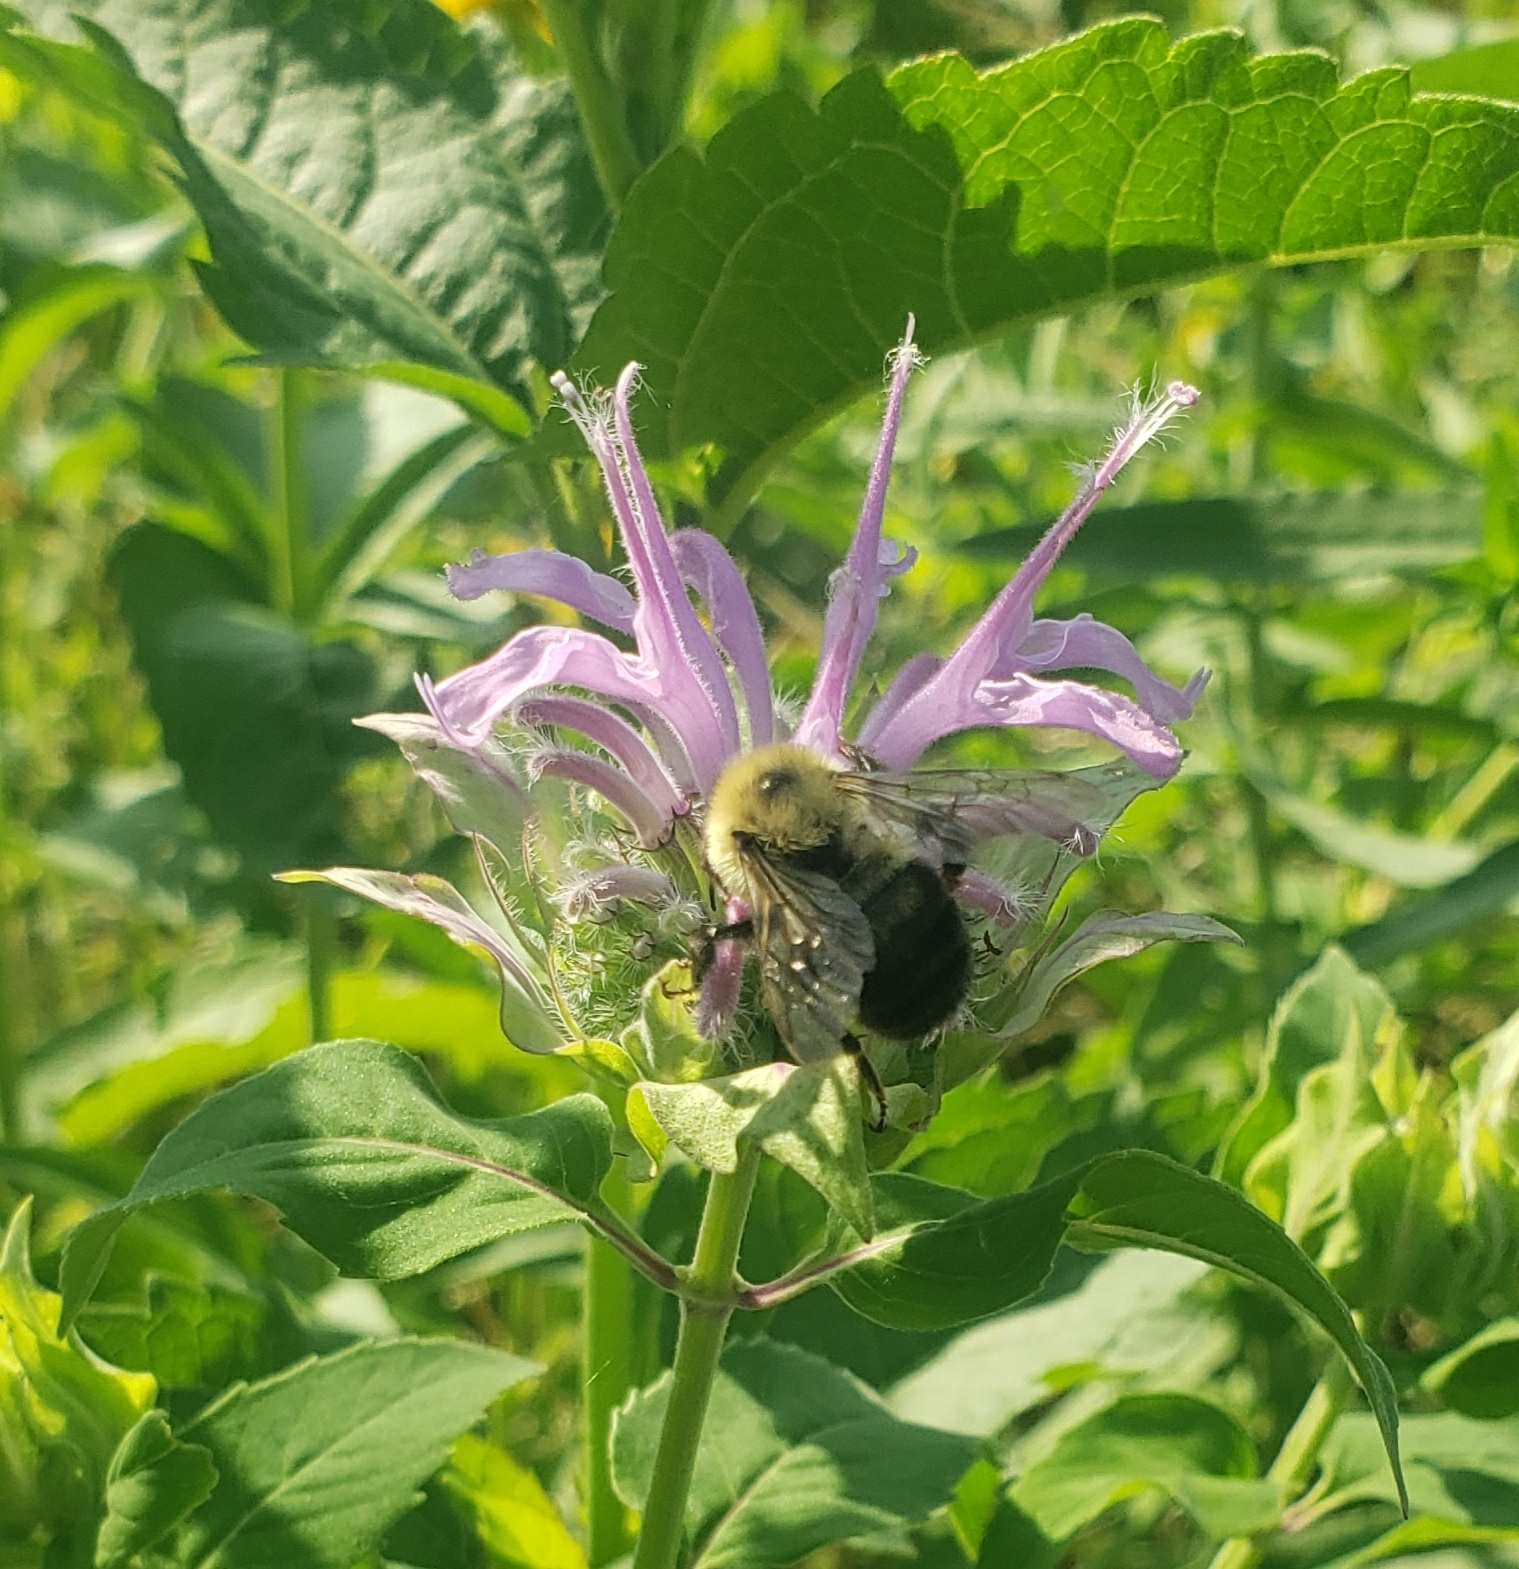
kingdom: Animalia
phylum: Arthropoda
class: Insecta
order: Hymenoptera
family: Apidae
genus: Bombus
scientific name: Bombus bimaculatus
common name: Two-spotted bumble bee
